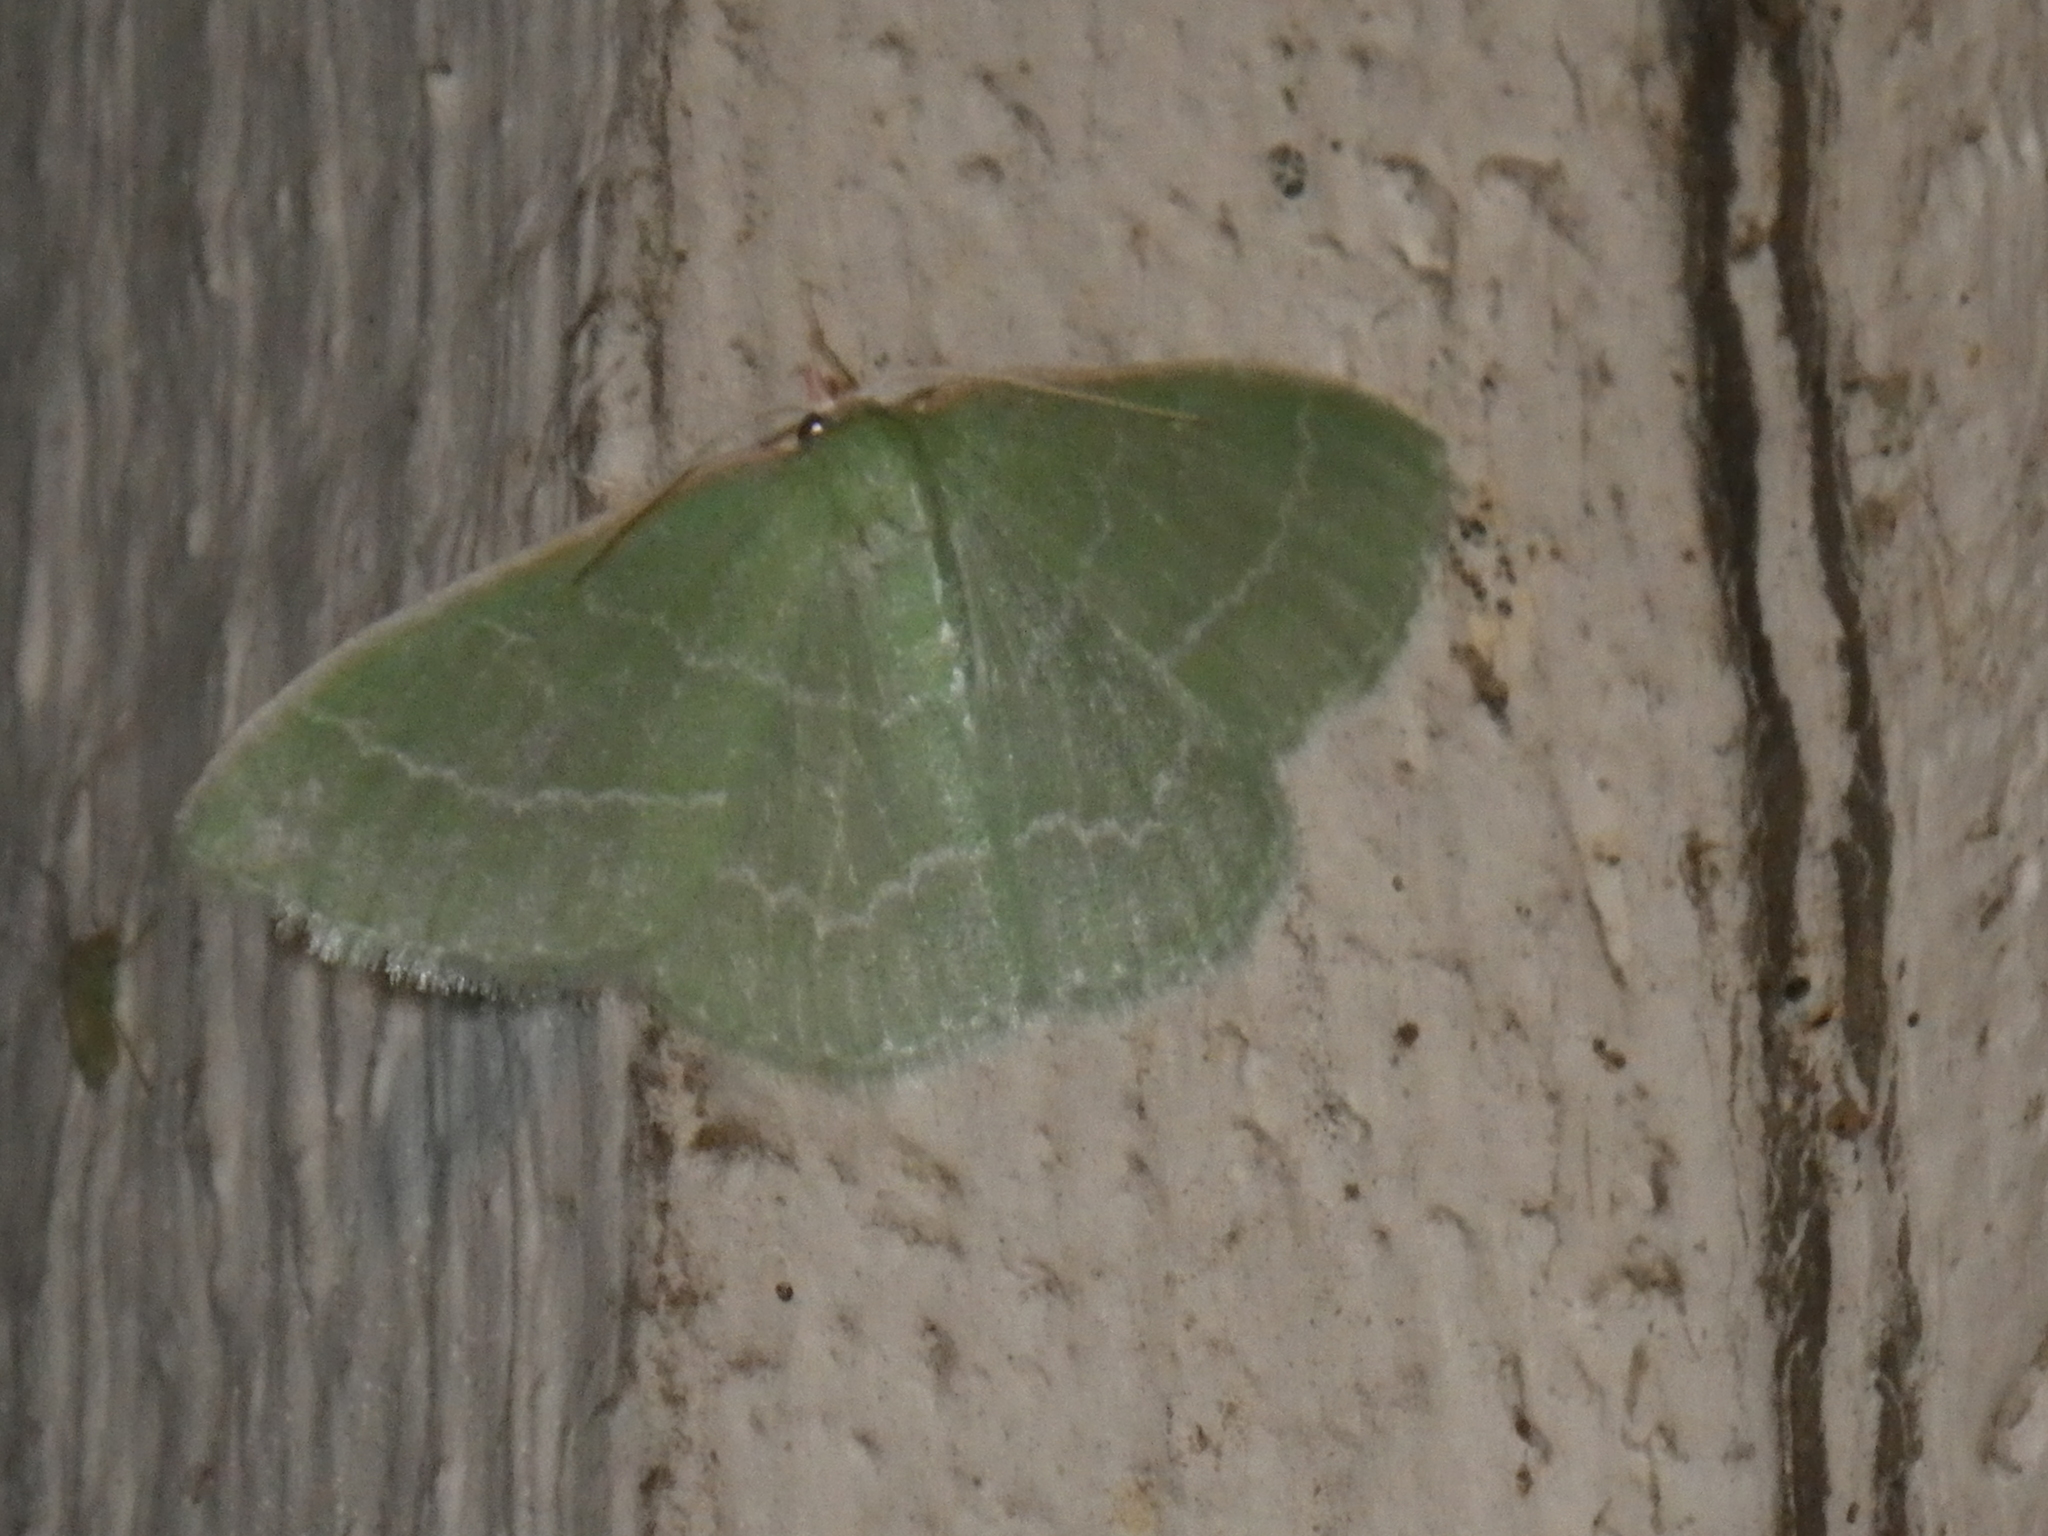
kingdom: Animalia
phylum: Arthropoda
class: Insecta
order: Lepidoptera
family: Geometridae
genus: Synchlora
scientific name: Synchlora aerata
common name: Wavy-lined emerald
